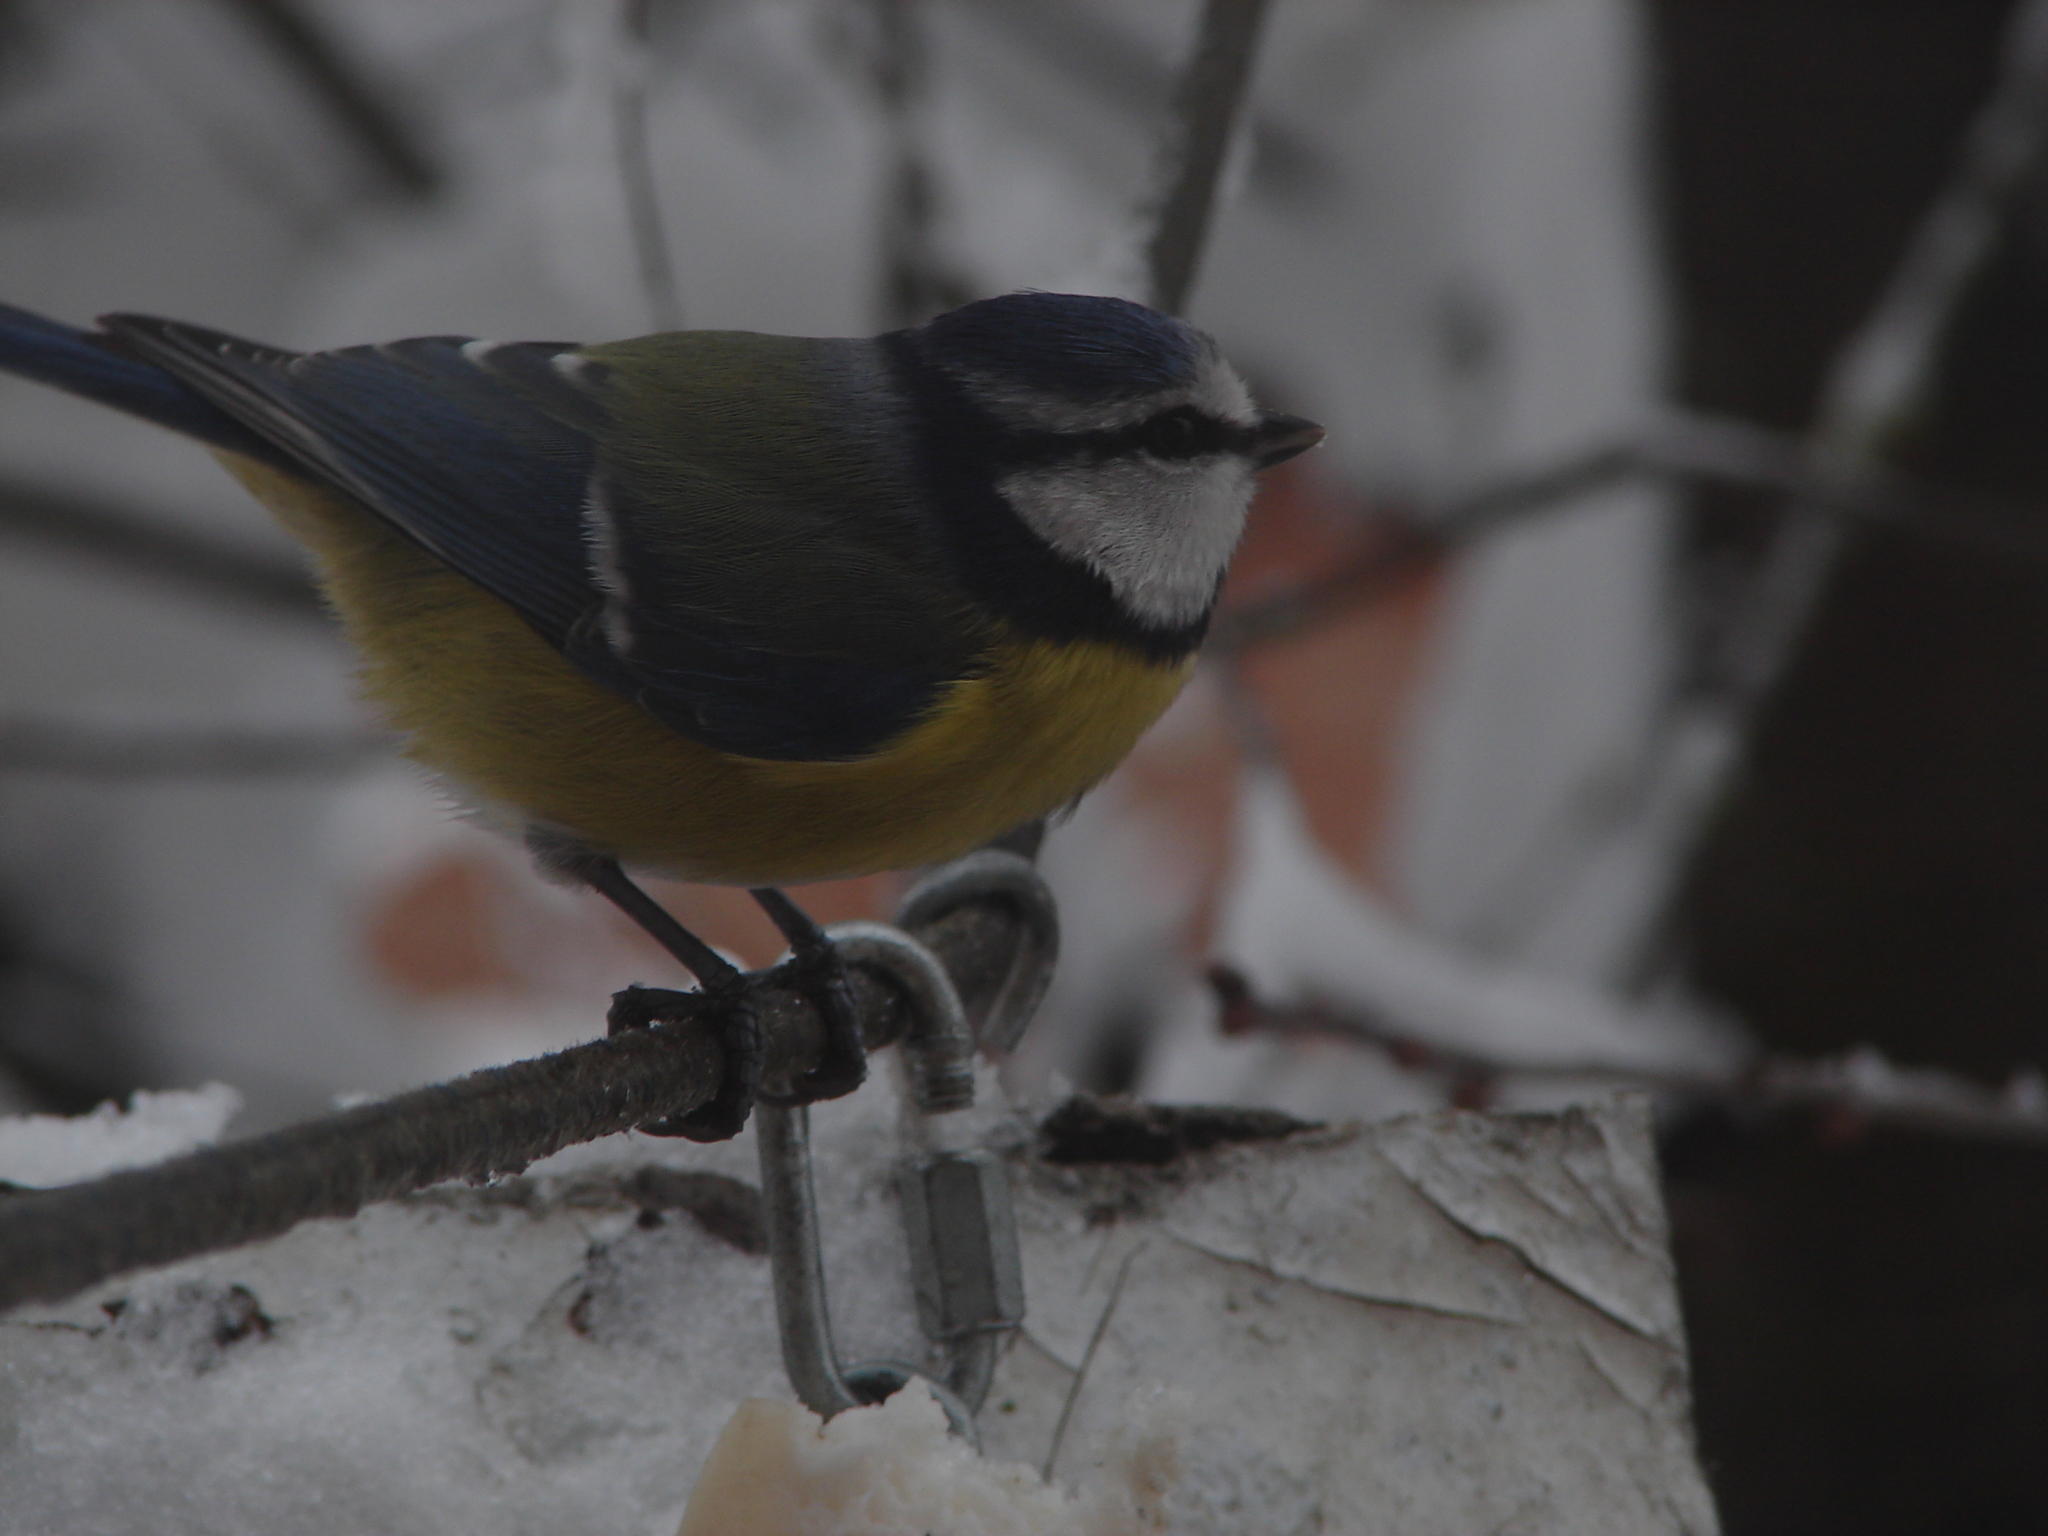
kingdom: Animalia
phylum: Chordata
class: Aves
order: Passeriformes
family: Paridae
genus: Cyanistes
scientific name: Cyanistes caeruleus
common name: Eurasian blue tit
